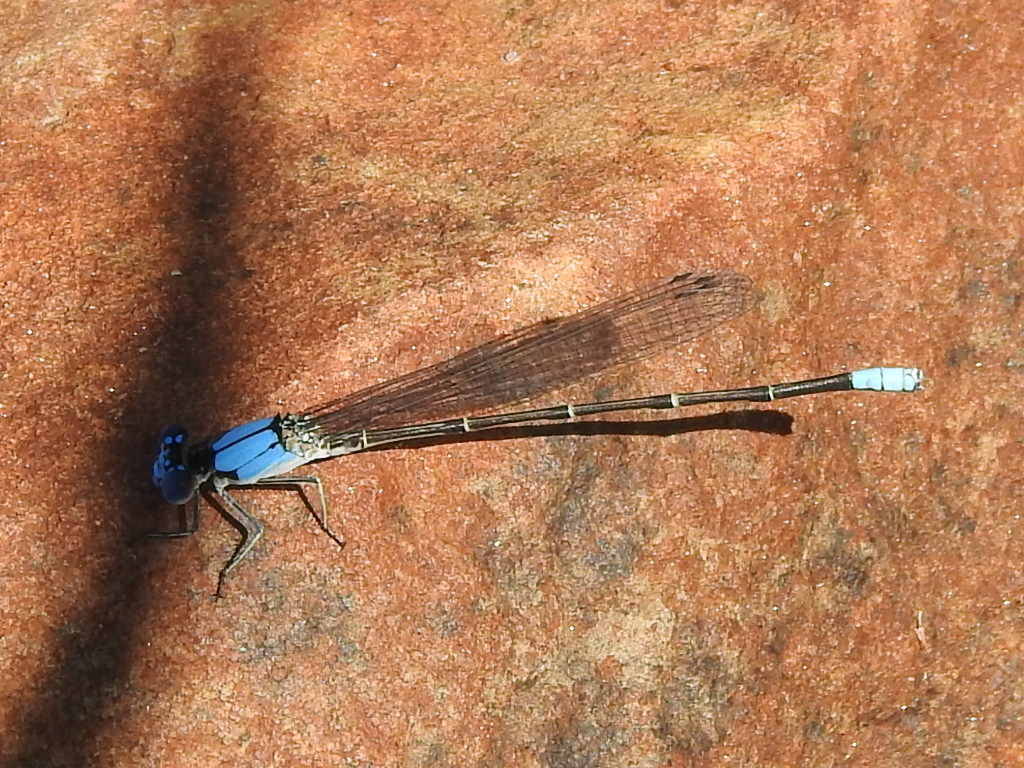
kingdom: Animalia
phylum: Arthropoda
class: Insecta
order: Odonata
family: Coenagrionidae
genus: Argia
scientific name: Argia apicalis
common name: Blue-fronted dancer
